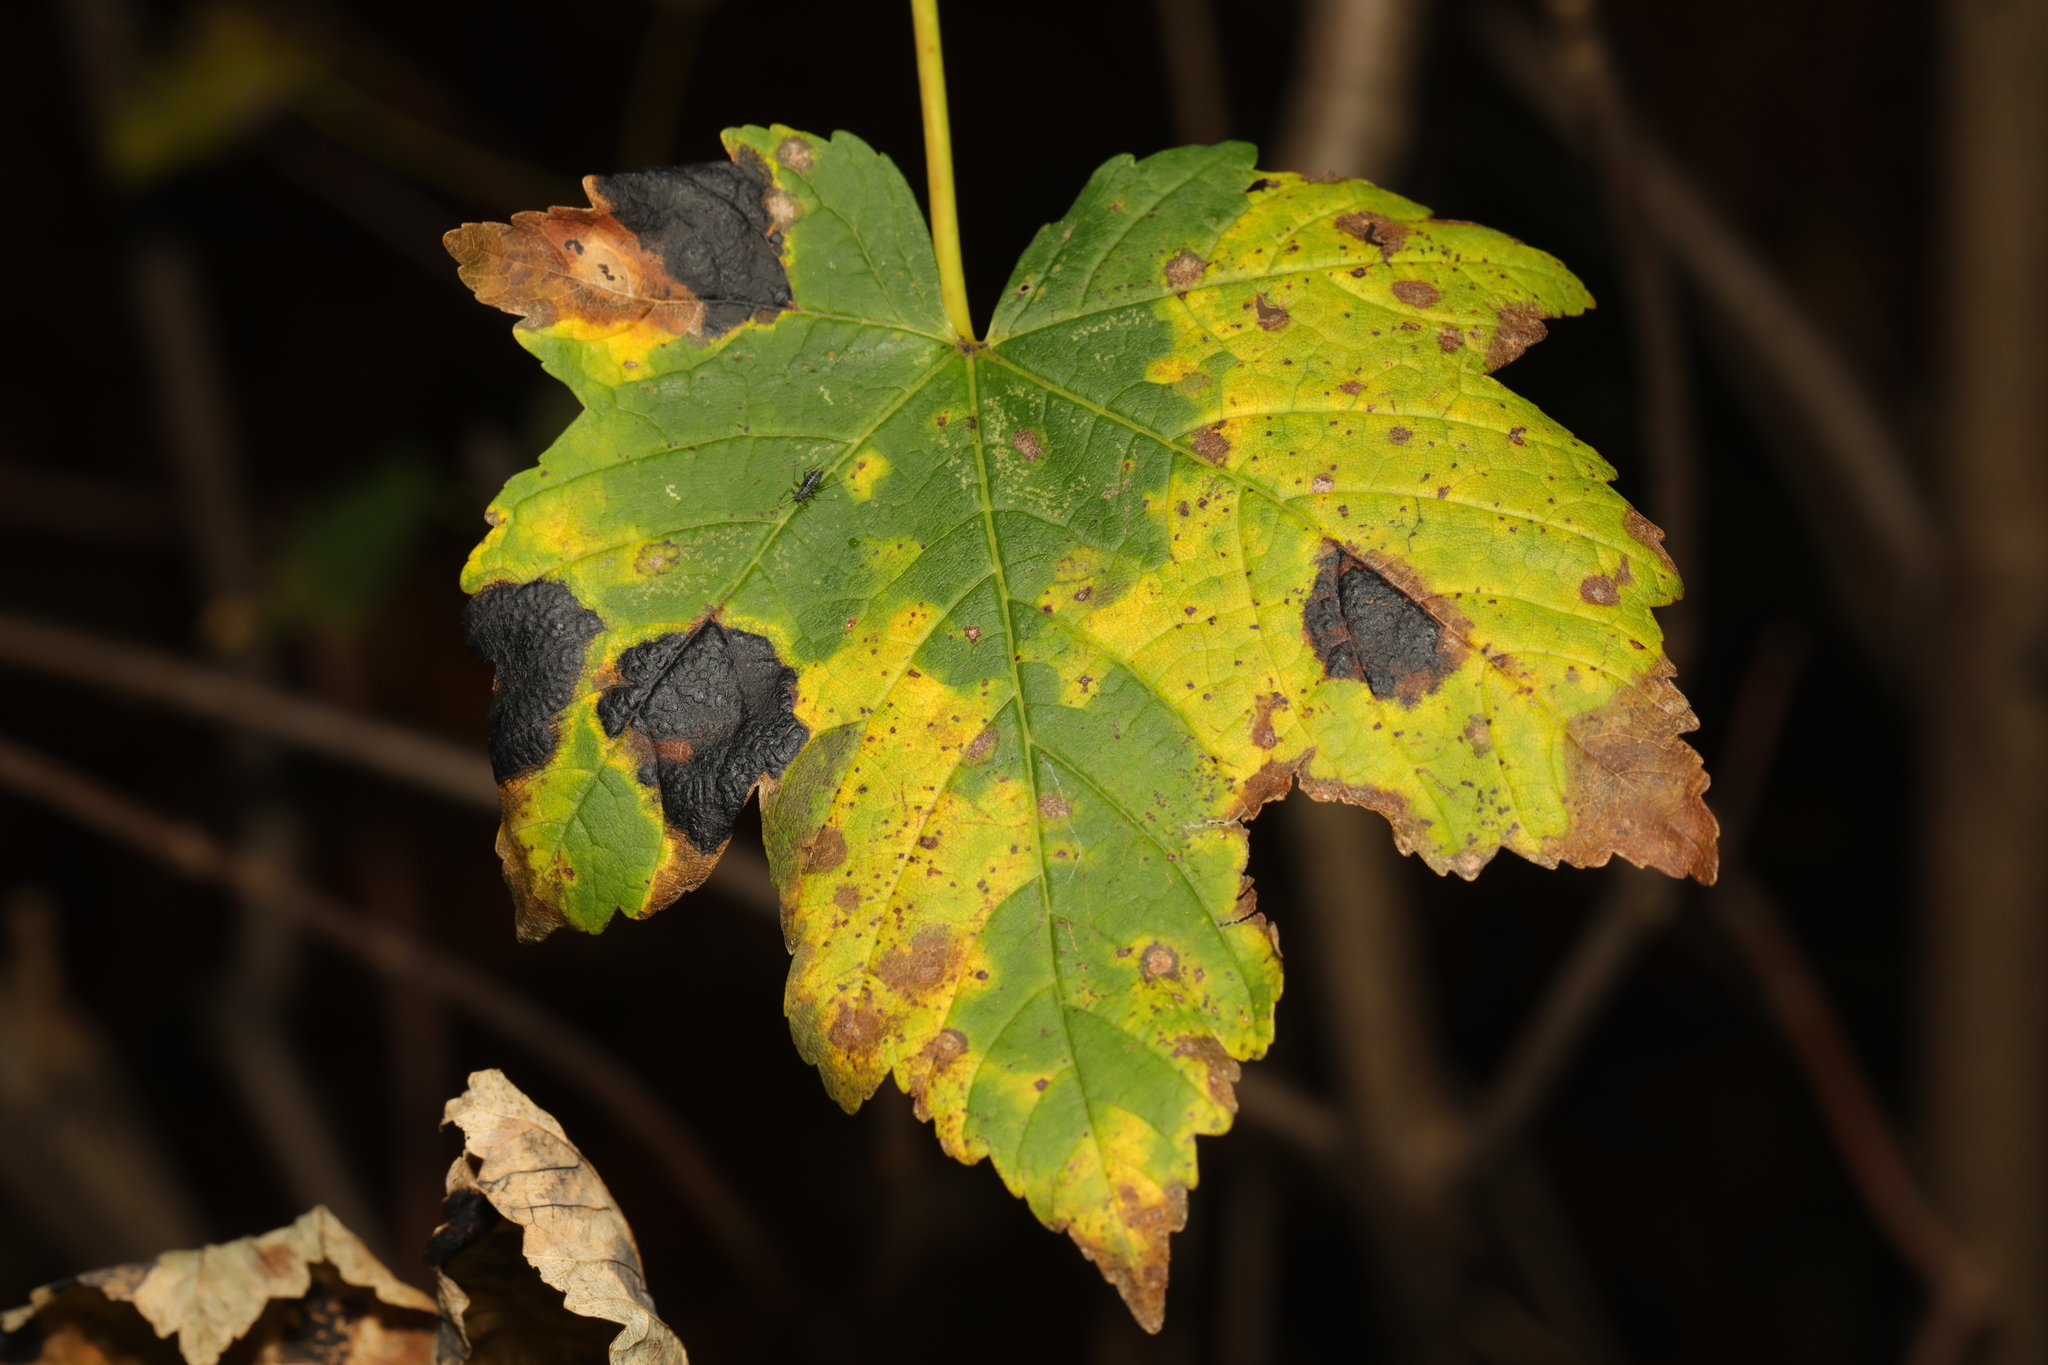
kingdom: Plantae
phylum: Tracheophyta
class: Magnoliopsida
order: Sapindales
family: Sapindaceae
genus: Acer
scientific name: Acer pseudoplatanus
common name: Sycamore
